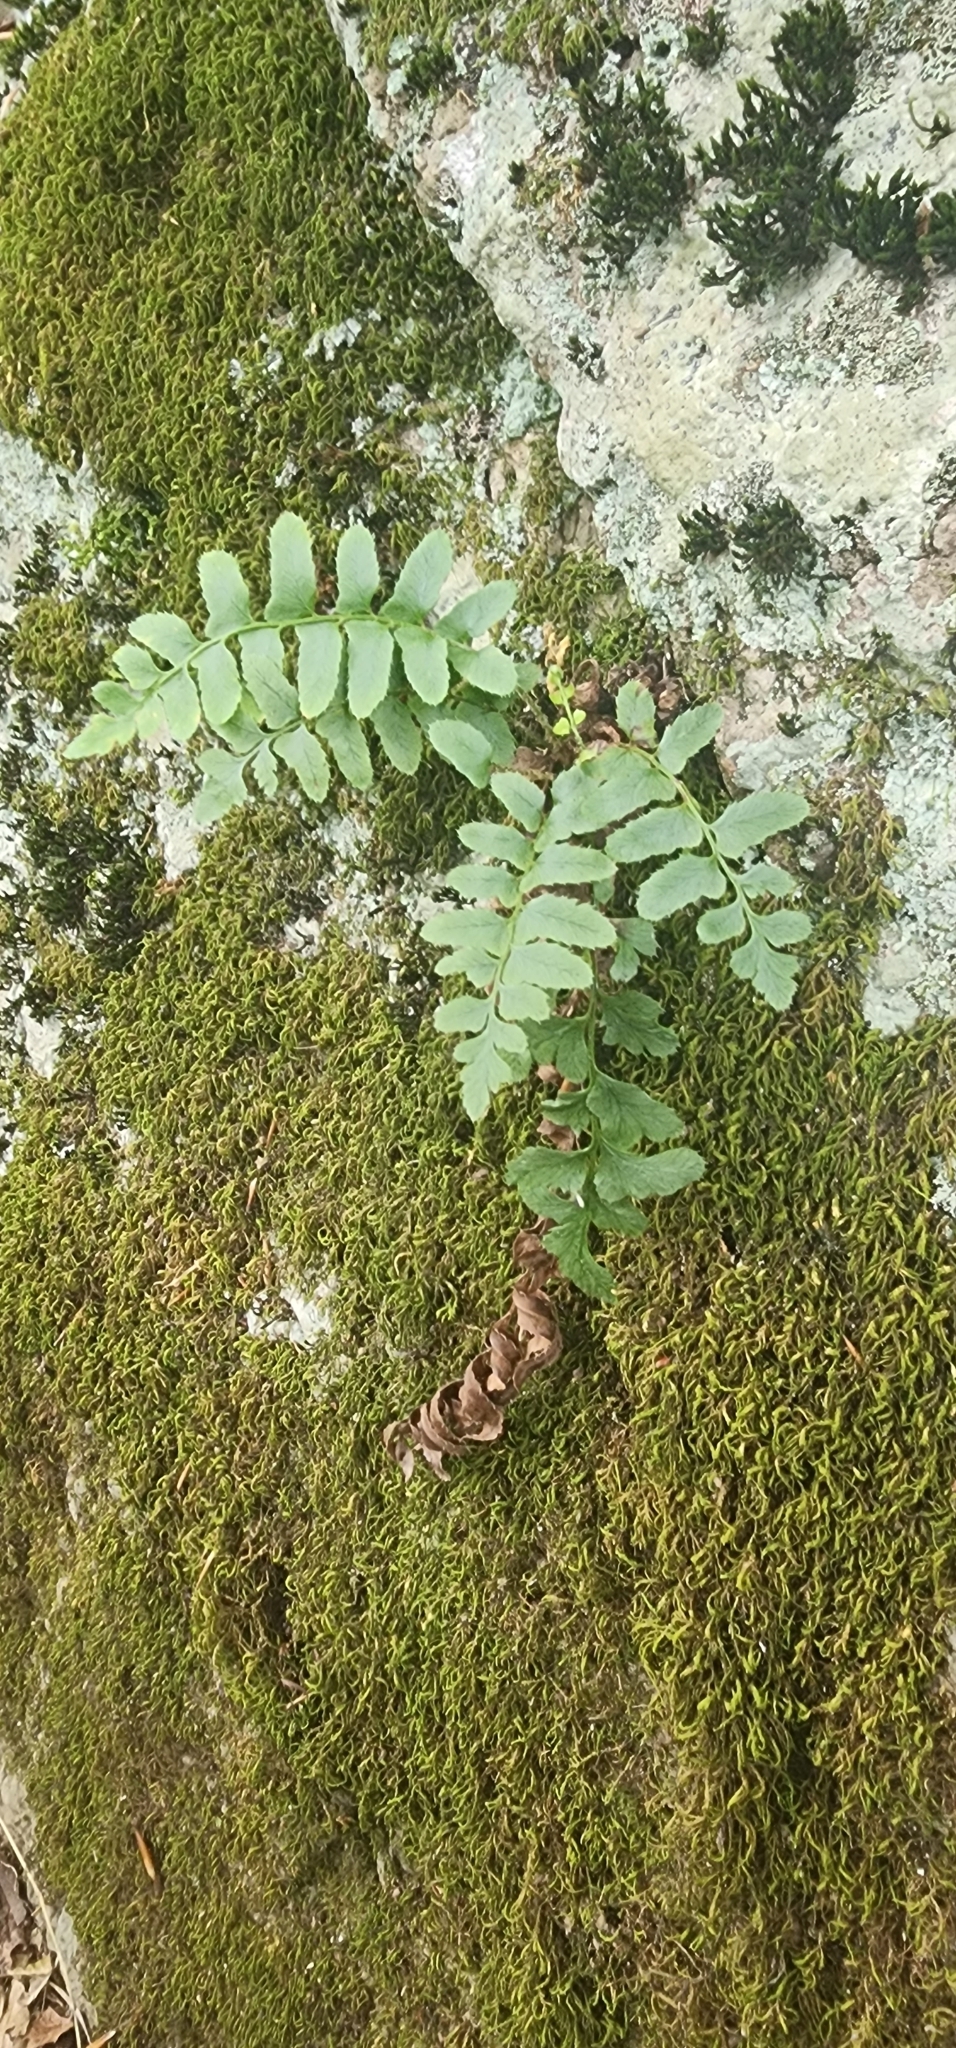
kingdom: Plantae
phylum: Tracheophyta
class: Polypodiopsida
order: Polypodiales
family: Dryopteridaceae
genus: Polystichum
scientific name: Polystichum acrostichoides
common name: Christmas fern
